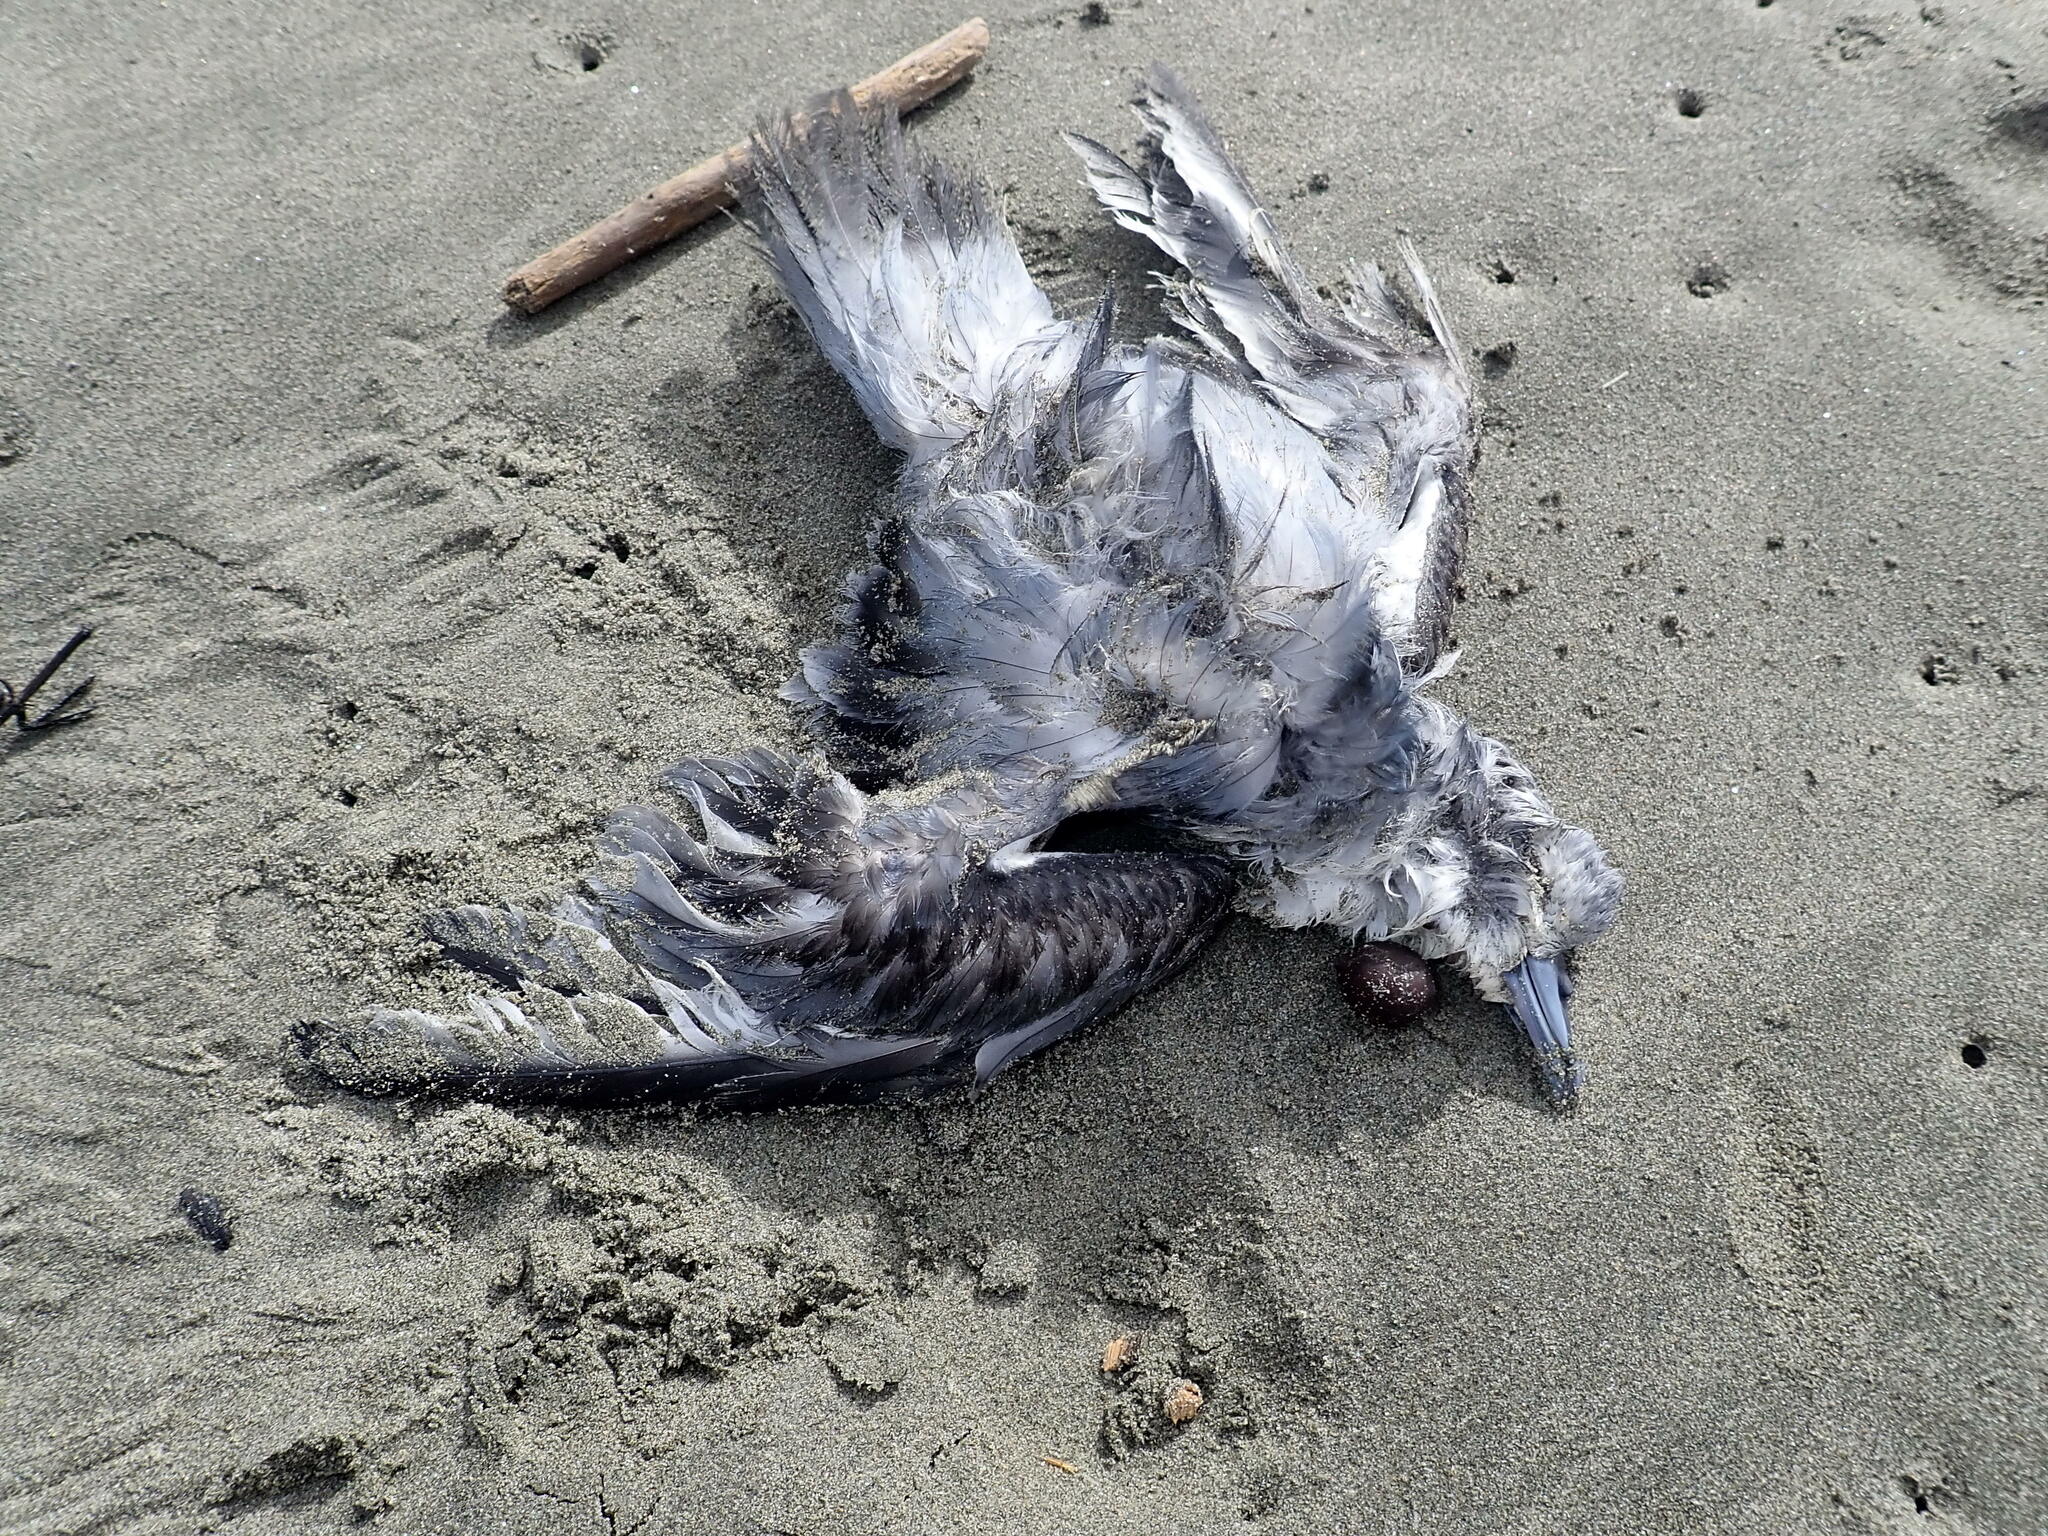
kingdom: Animalia
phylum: Chordata
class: Aves
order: Procellariiformes
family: Procellariidae
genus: Pachyptila
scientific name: Pachyptila turtur
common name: Fairy prion
